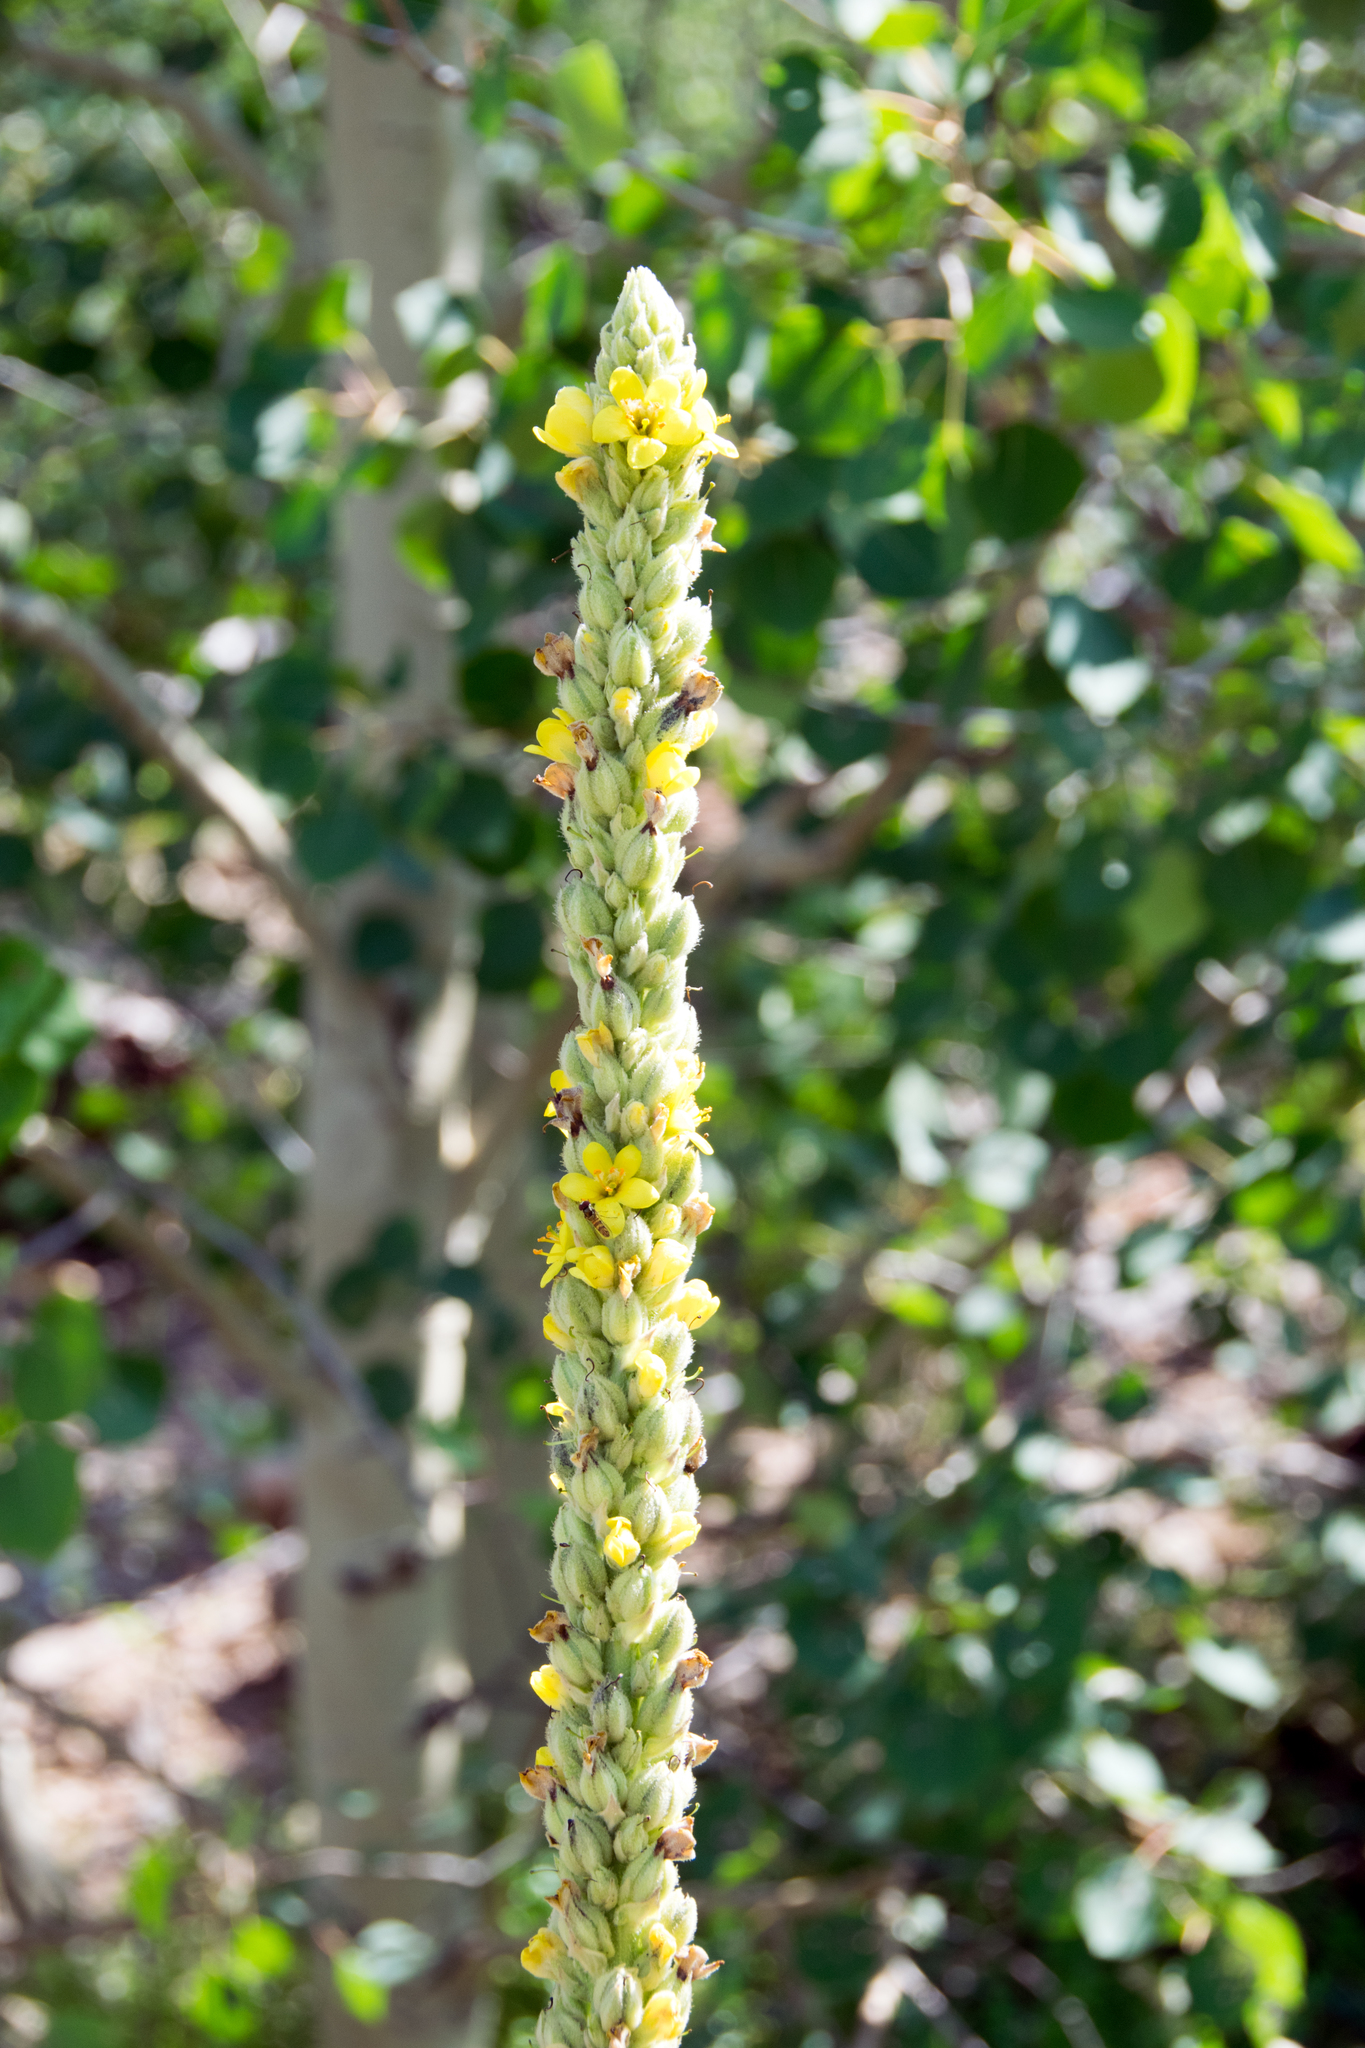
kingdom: Plantae
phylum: Tracheophyta
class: Magnoliopsida
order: Lamiales
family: Scrophulariaceae
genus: Verbascum
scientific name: Verbascum thapsus
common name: Common mullein
